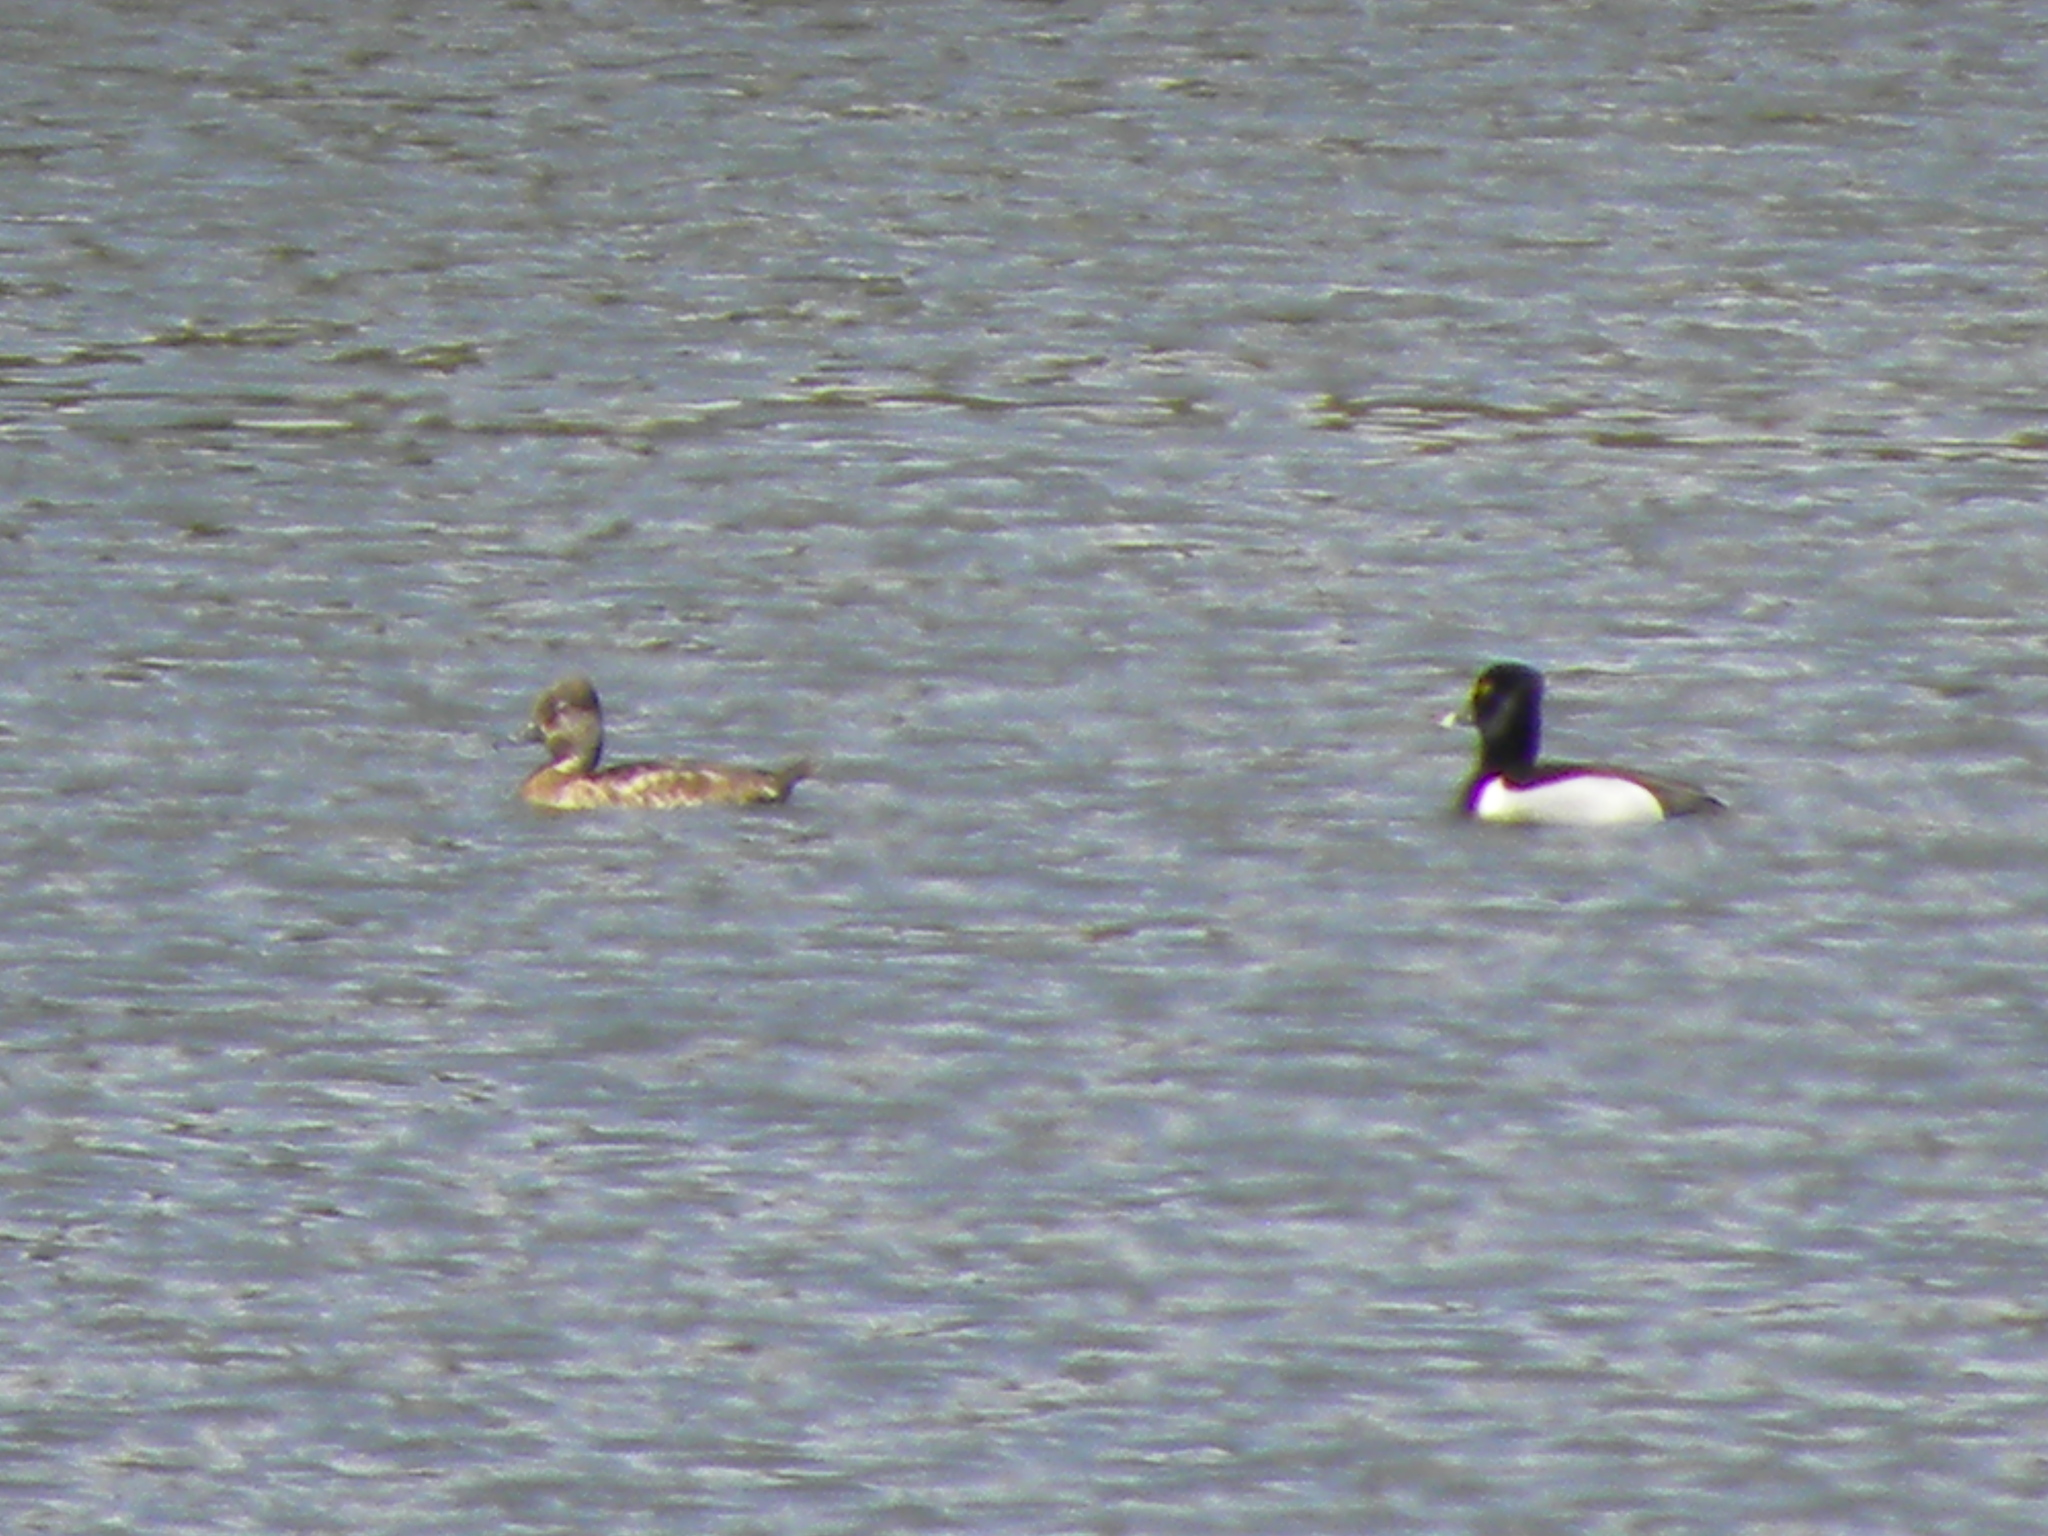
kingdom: Animalia
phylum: Chordata
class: Aves
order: Anseriformes
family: Anatidae
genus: Aythya
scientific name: Aythya collaris
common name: Ring-necked duck
